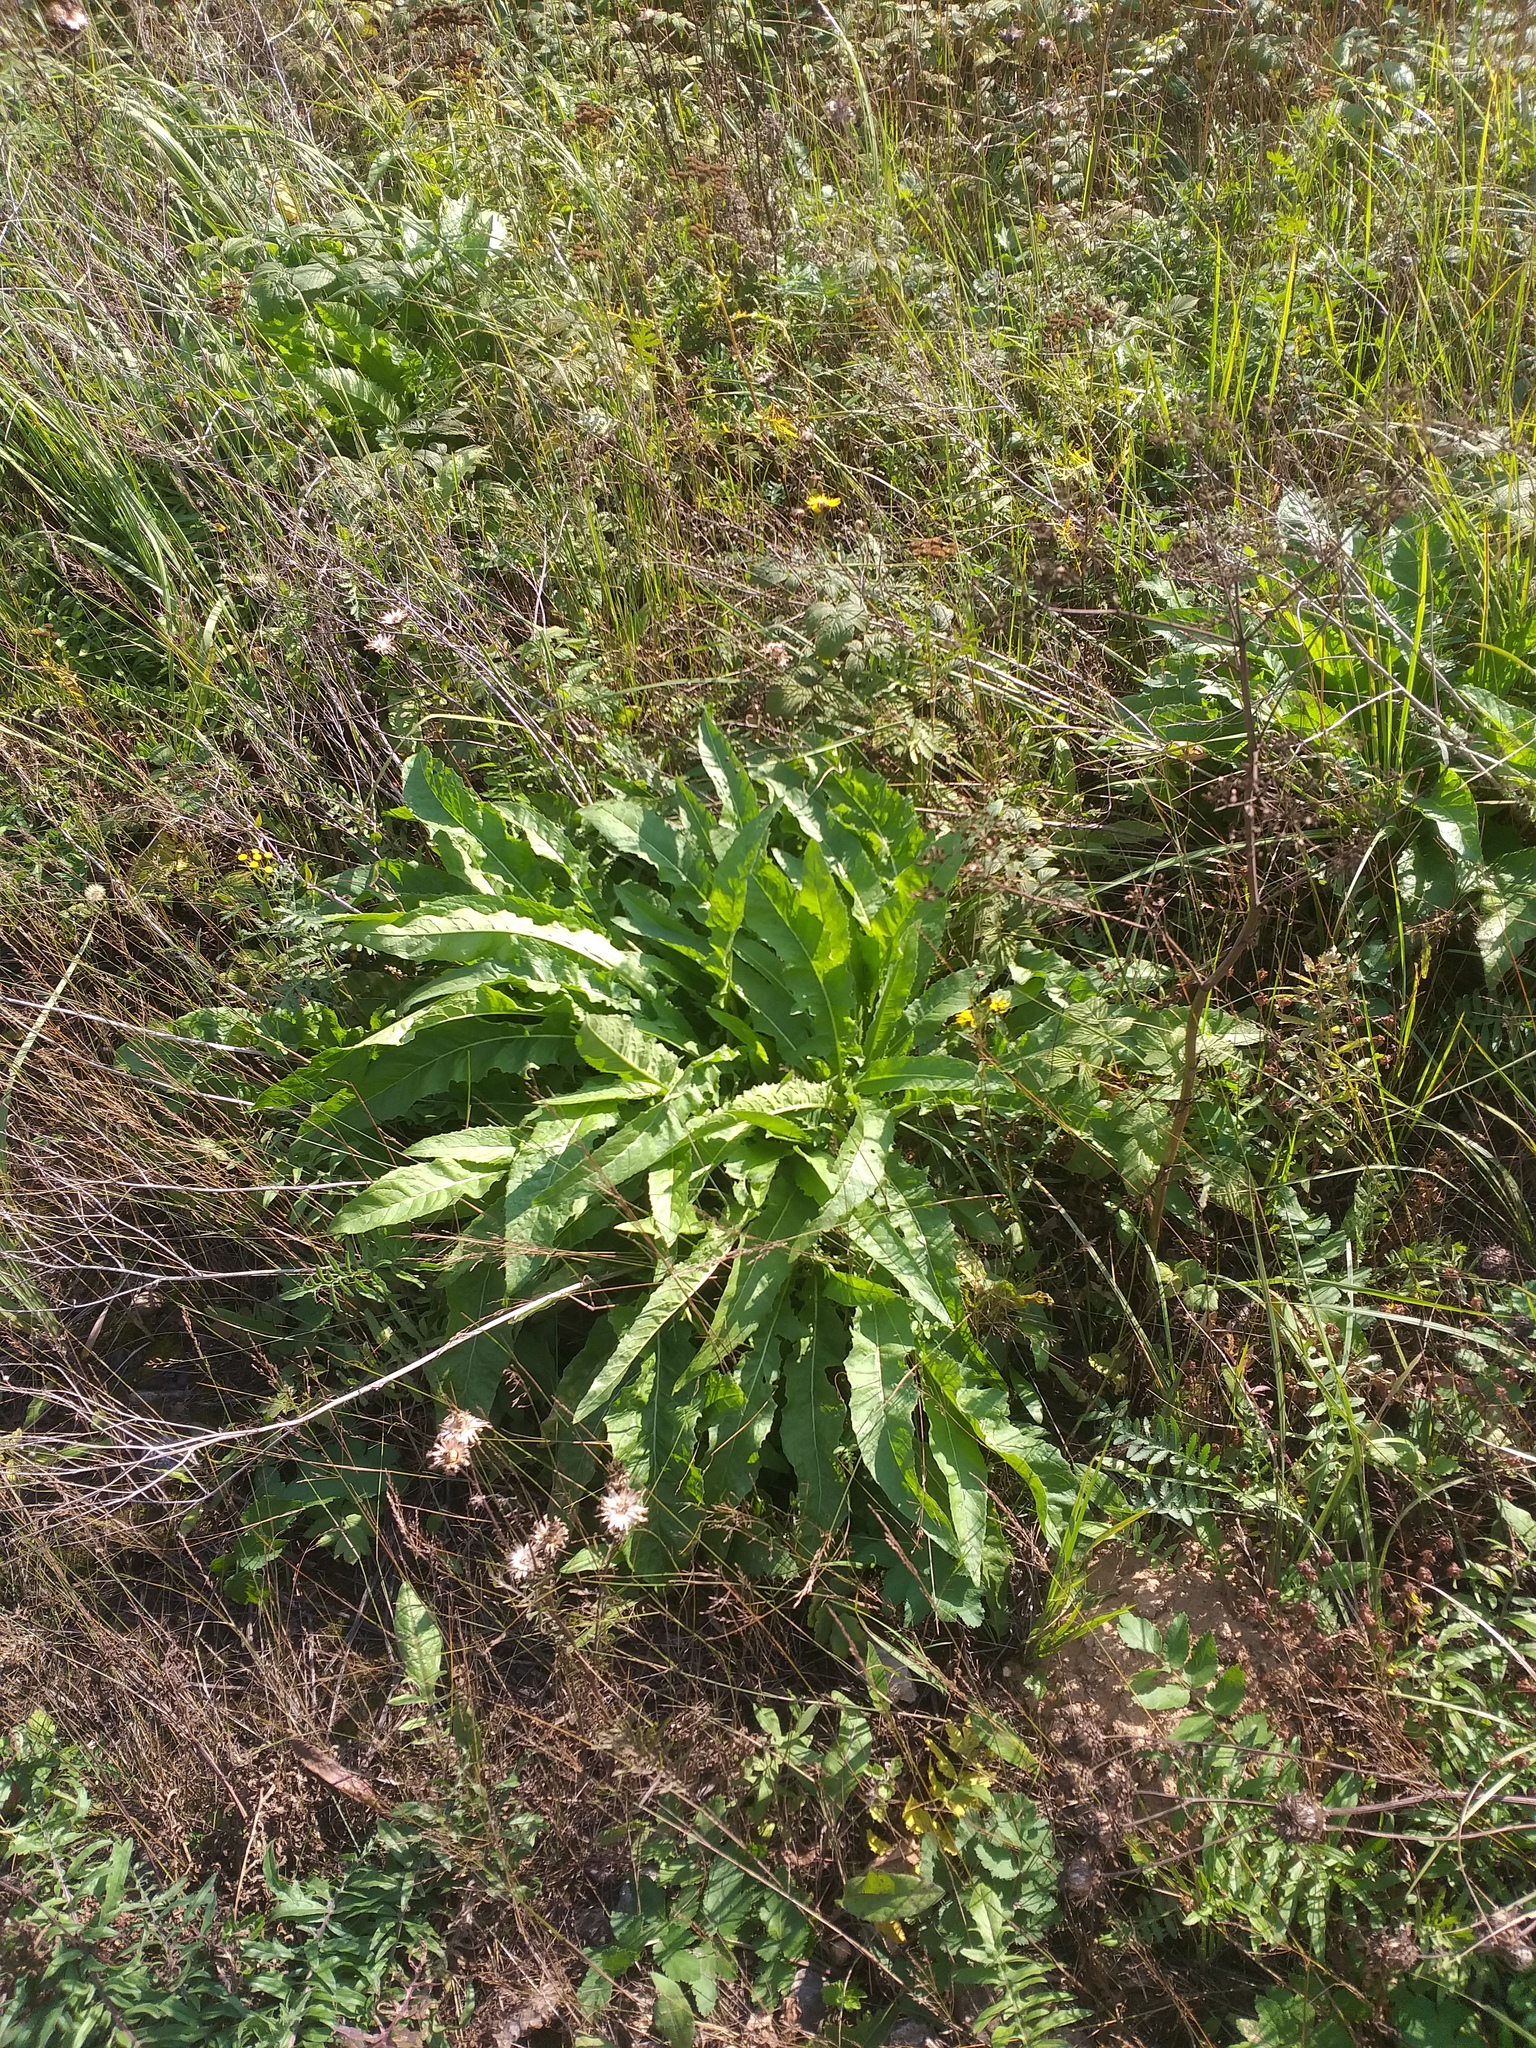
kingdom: Plantae
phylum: Tracheophyta
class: Magnoliopsida
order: Brassicales
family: Brassicaceae
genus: Bunias
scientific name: Bunias orientalis
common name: Warty-cabbage
